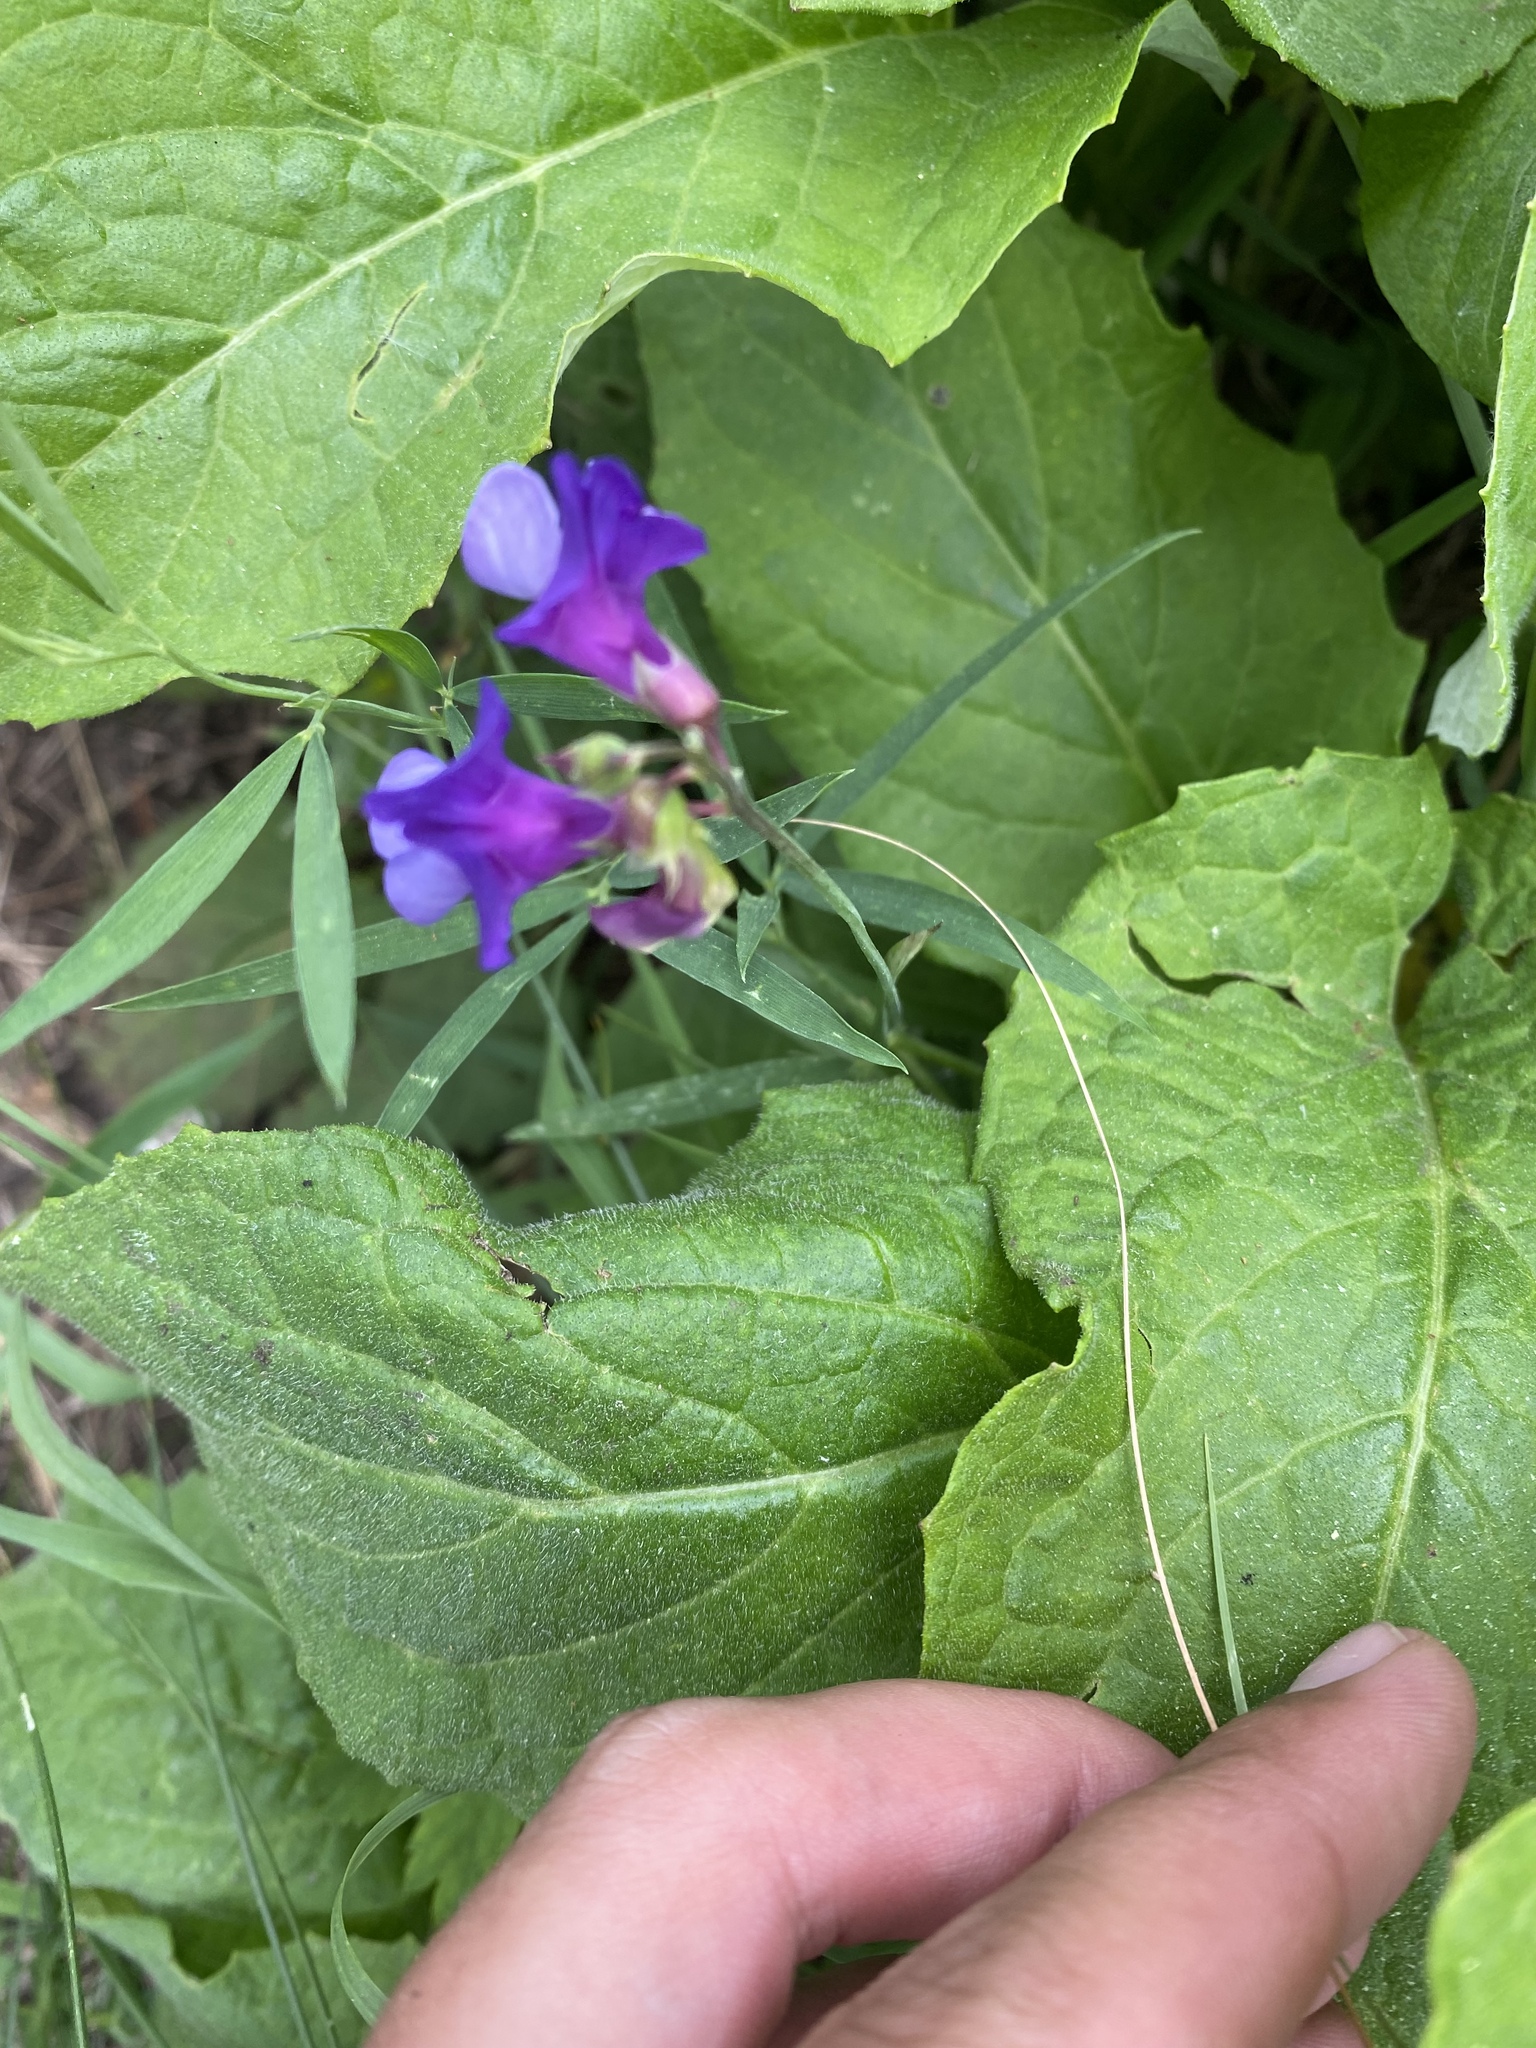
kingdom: Plantae
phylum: Tracheophyta
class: Magnoliopsida
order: Fabales
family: Fabaceae
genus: Lathyrus
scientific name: Lathyrus cyaneus
